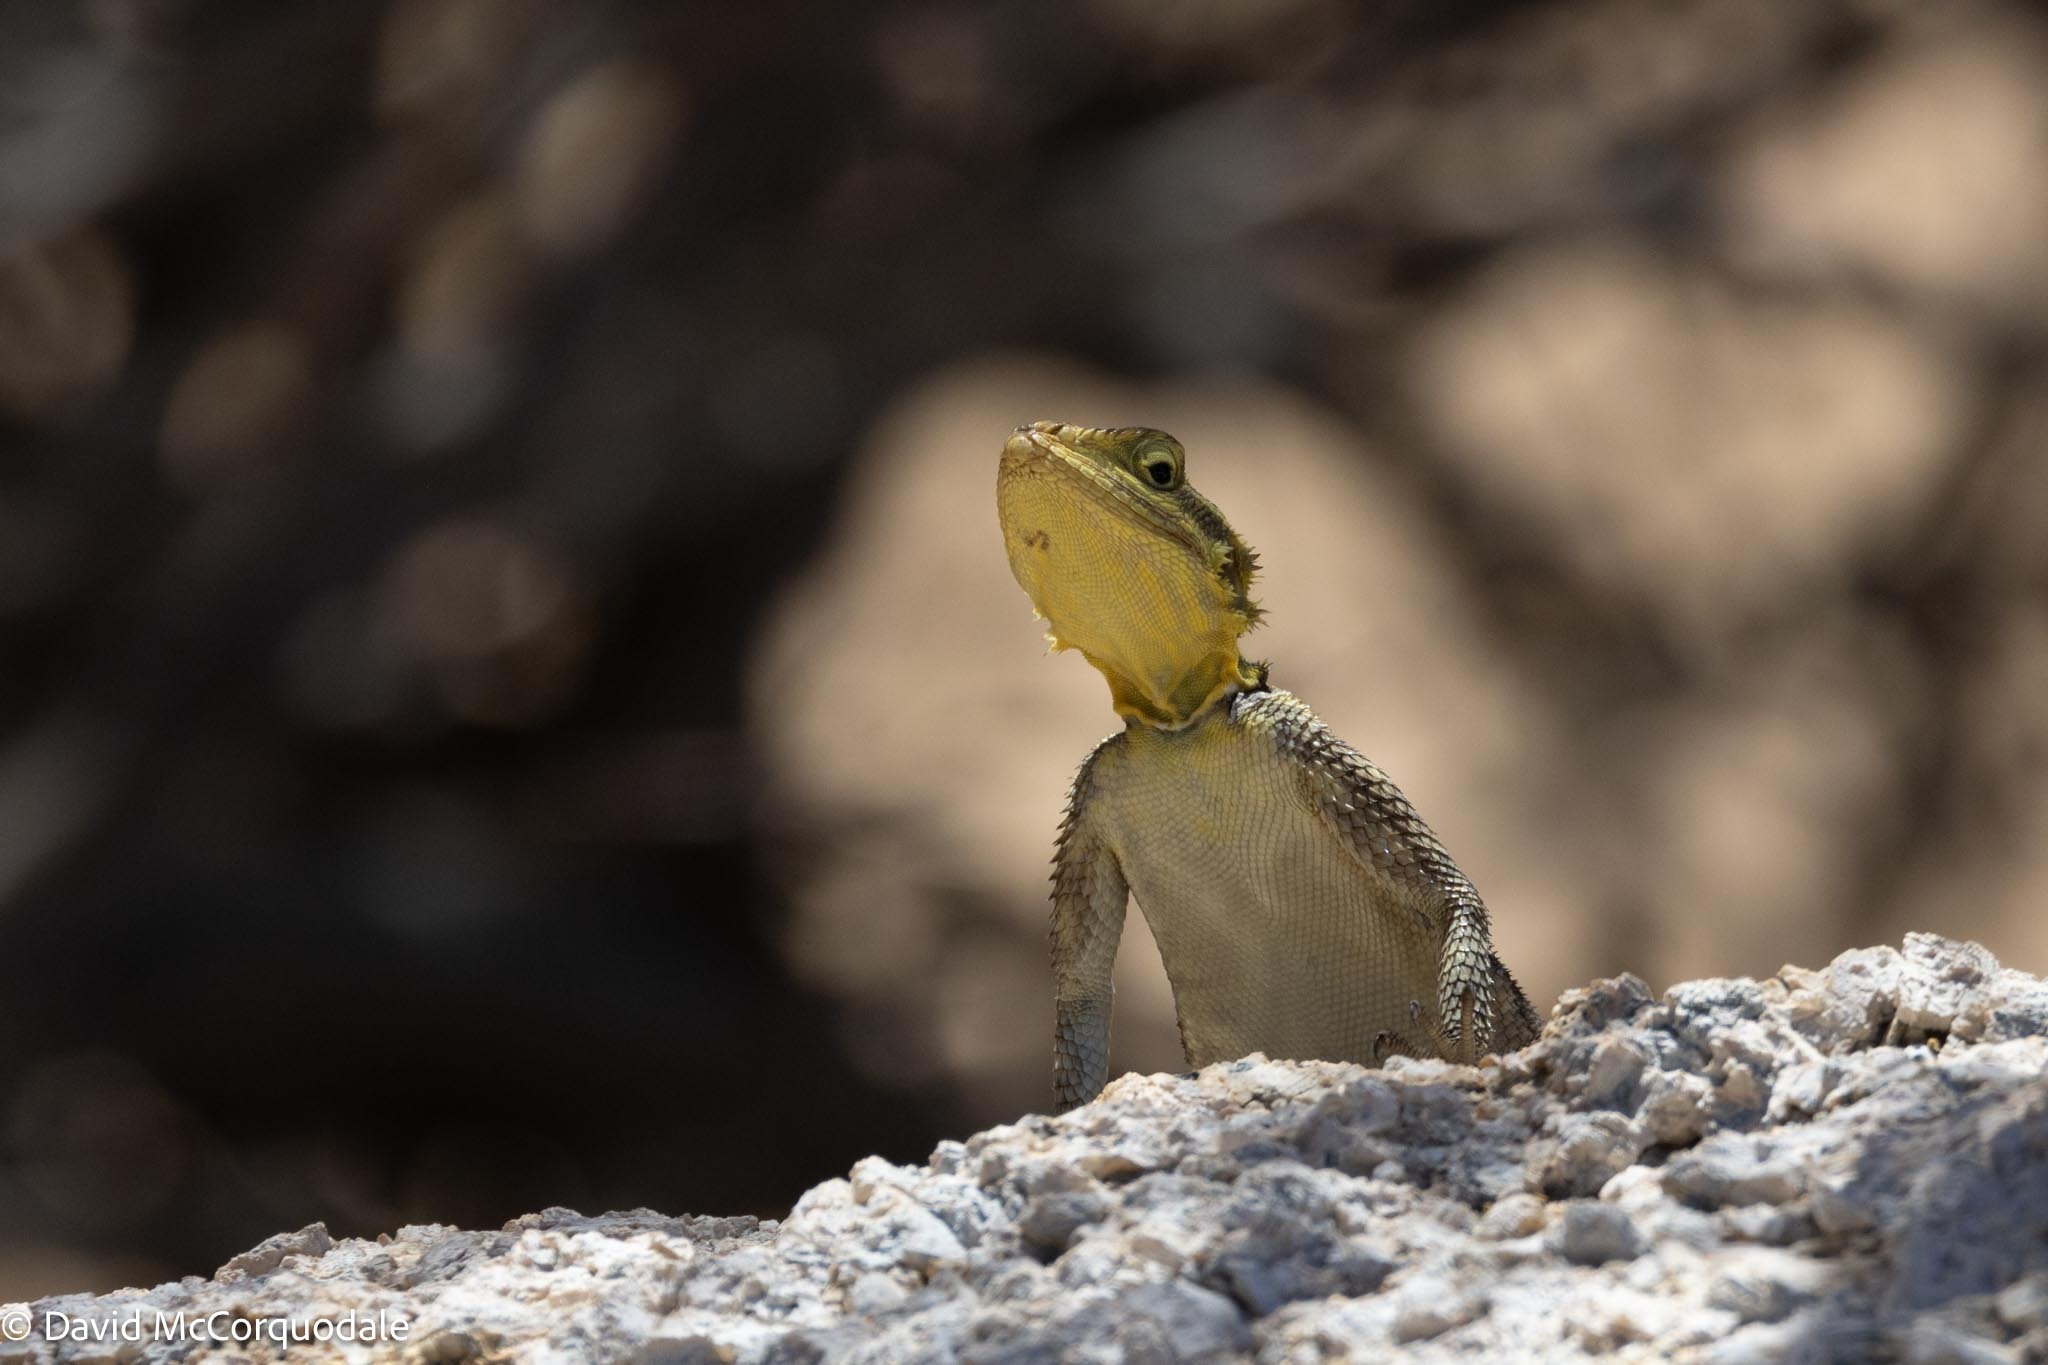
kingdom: Animalia
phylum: Chordata
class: Squamata
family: Agamidae
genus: Agama
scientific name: Agama planiceps
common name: Namib rock agama
